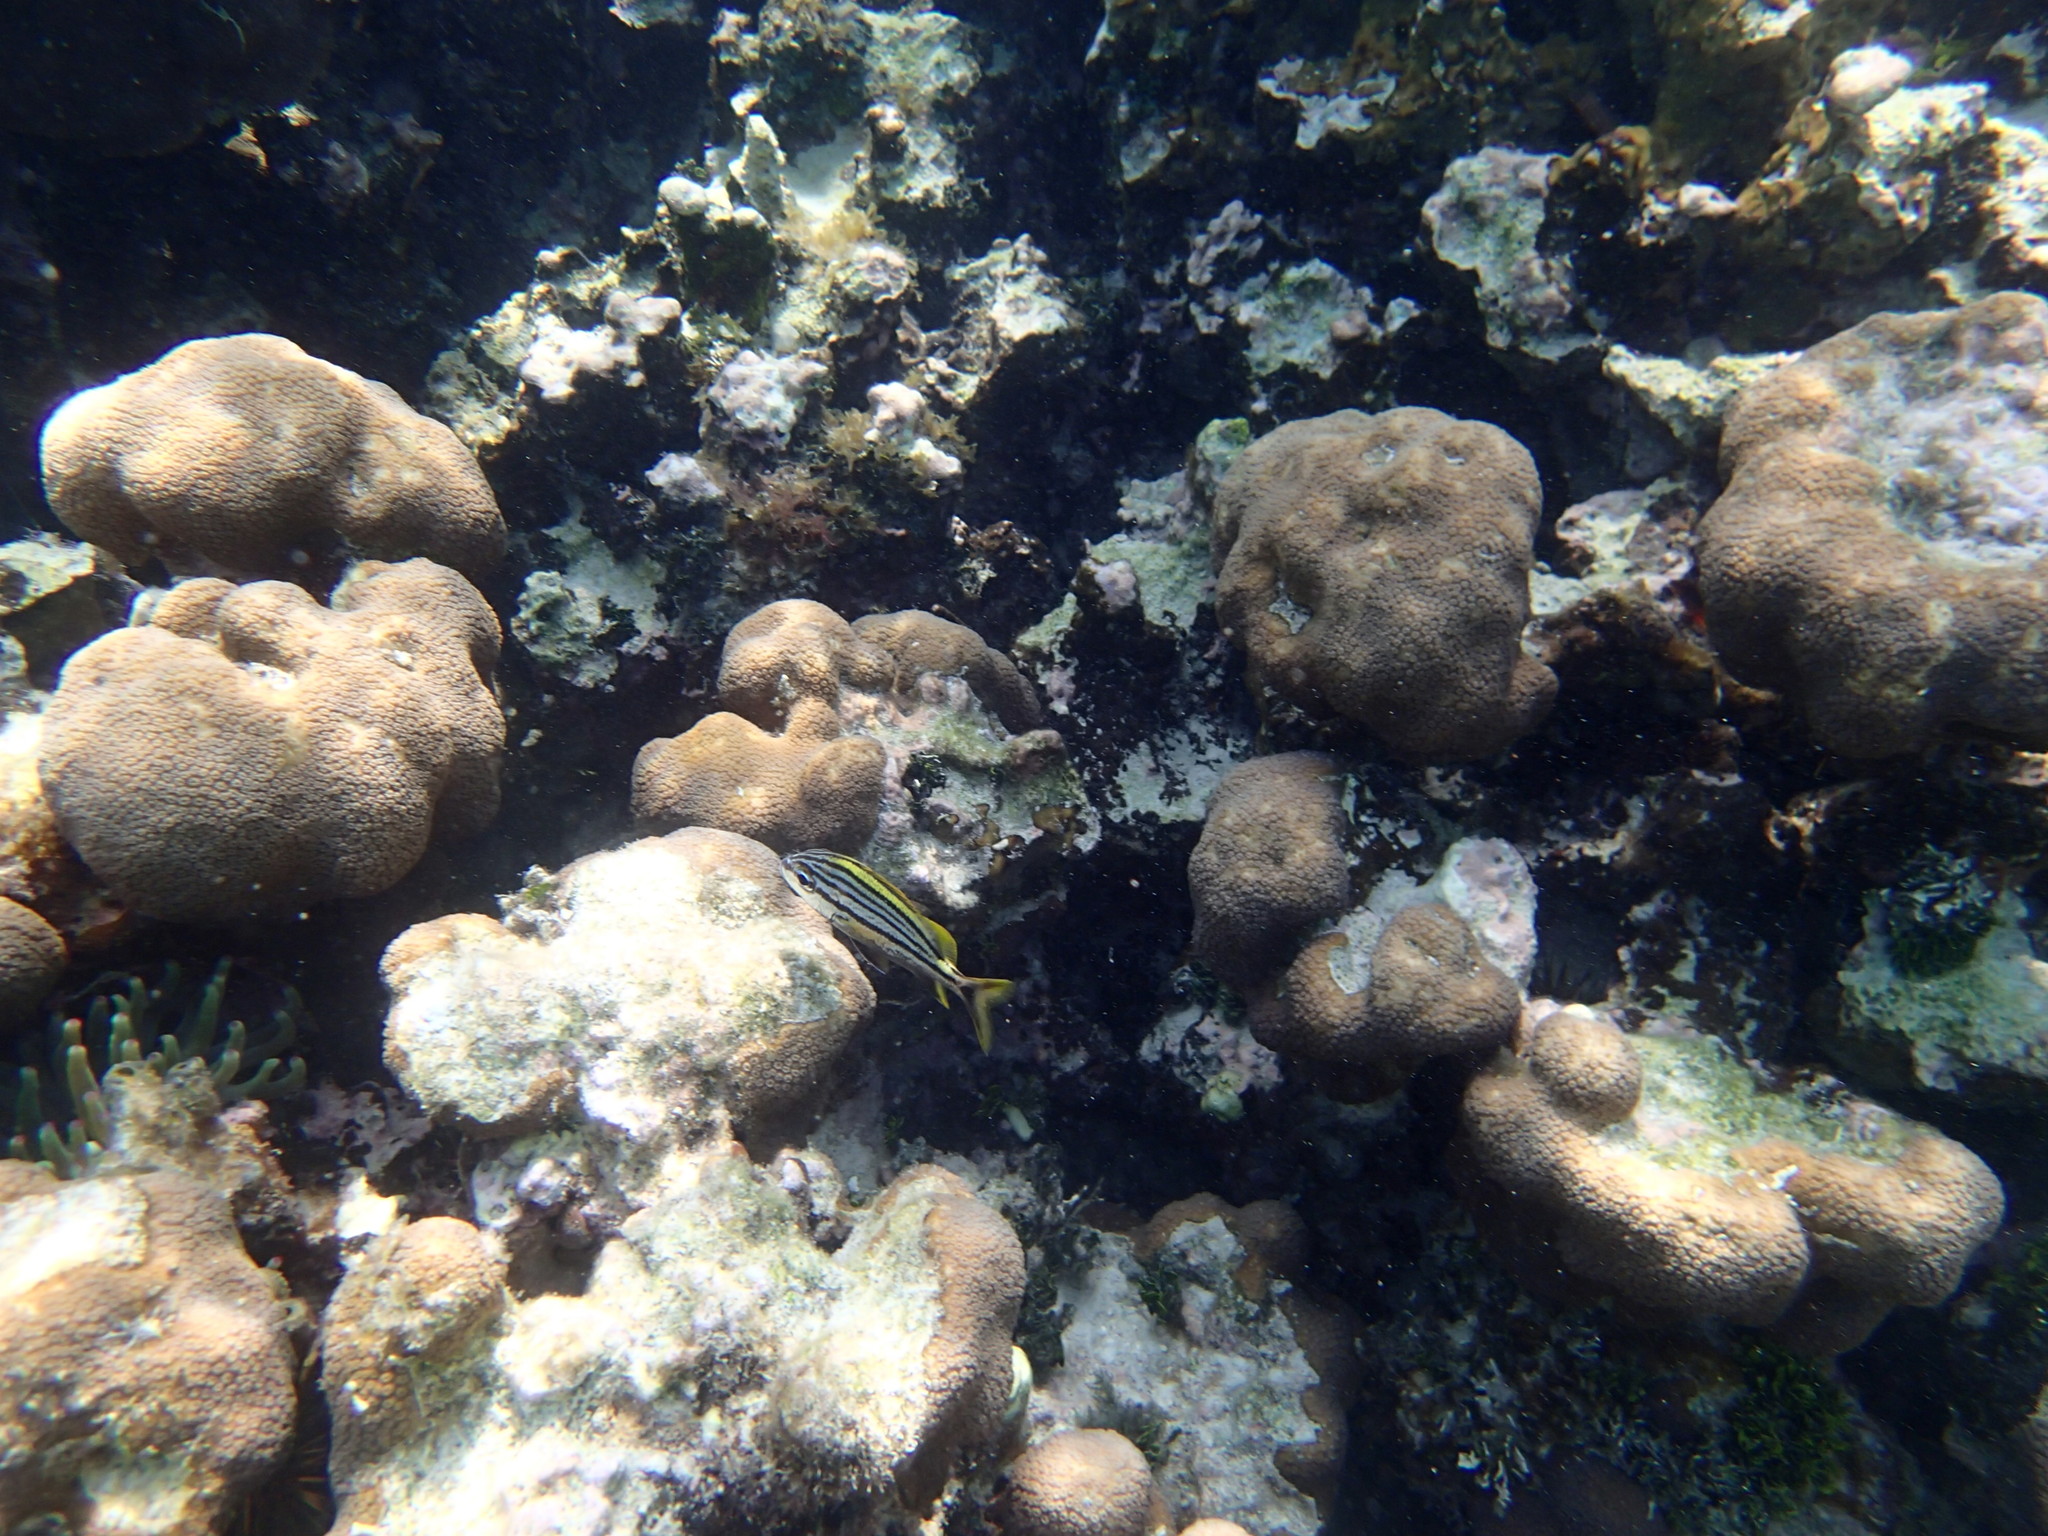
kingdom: Animalia
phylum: Chordata
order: Perciformes
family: Haemulidae
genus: Haemulon
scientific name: Haemulon macrostomum
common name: Spanish grunt
